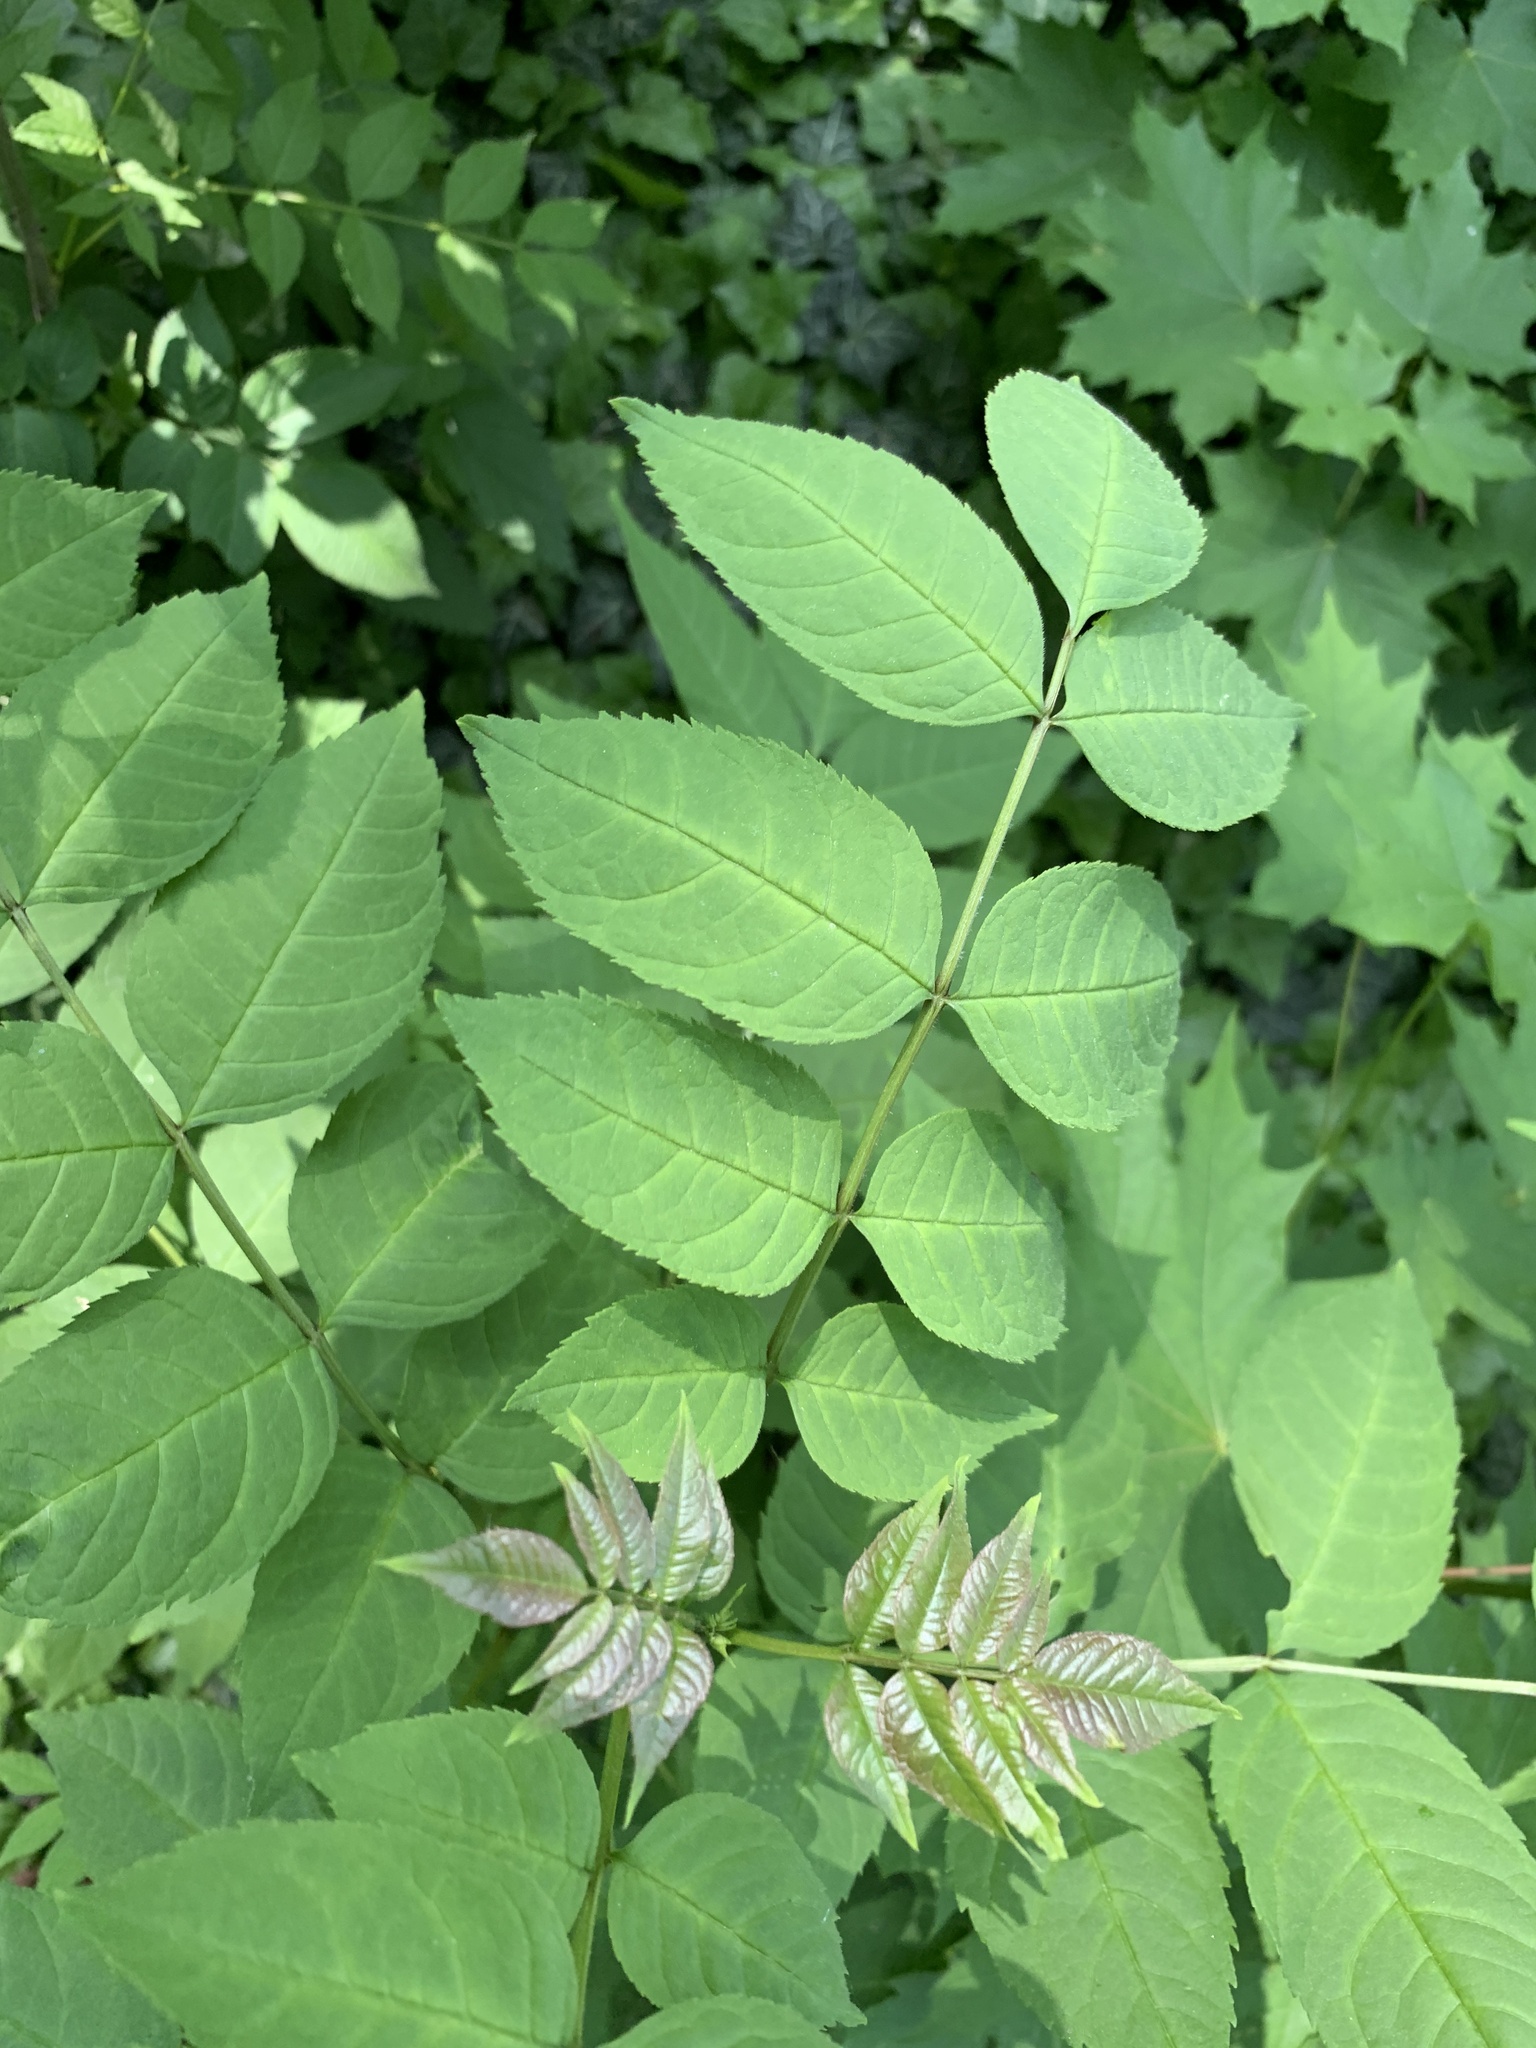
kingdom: Plantae
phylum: Tracheophyta
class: Magnoliopsida
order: Lamiales
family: Oleaceae
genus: Fraxinus
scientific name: Fraxinus excelsior
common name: European ash
